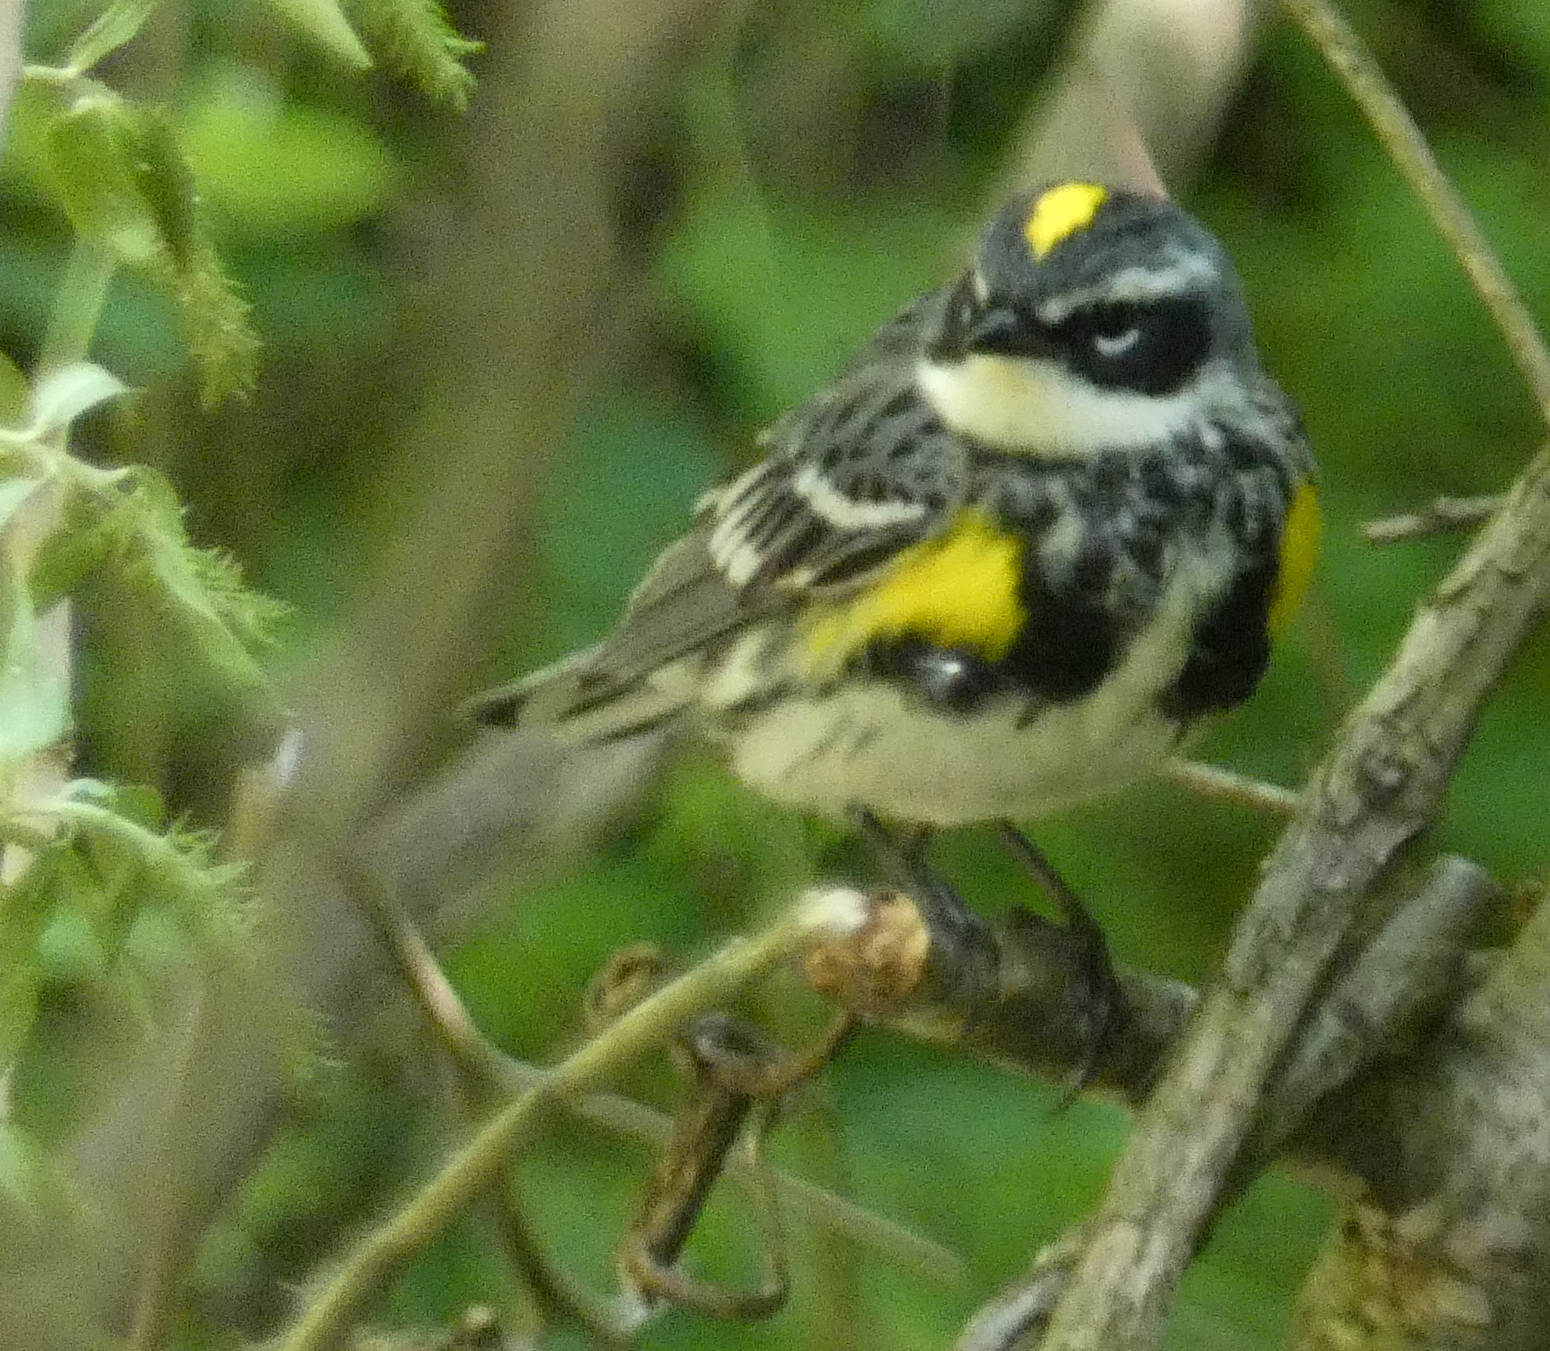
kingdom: Animalia
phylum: Chordata
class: Aves
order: Passeriformes
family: Parulidae
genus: Setophaga
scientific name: Setophaga coronata
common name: Myrtle warbler
